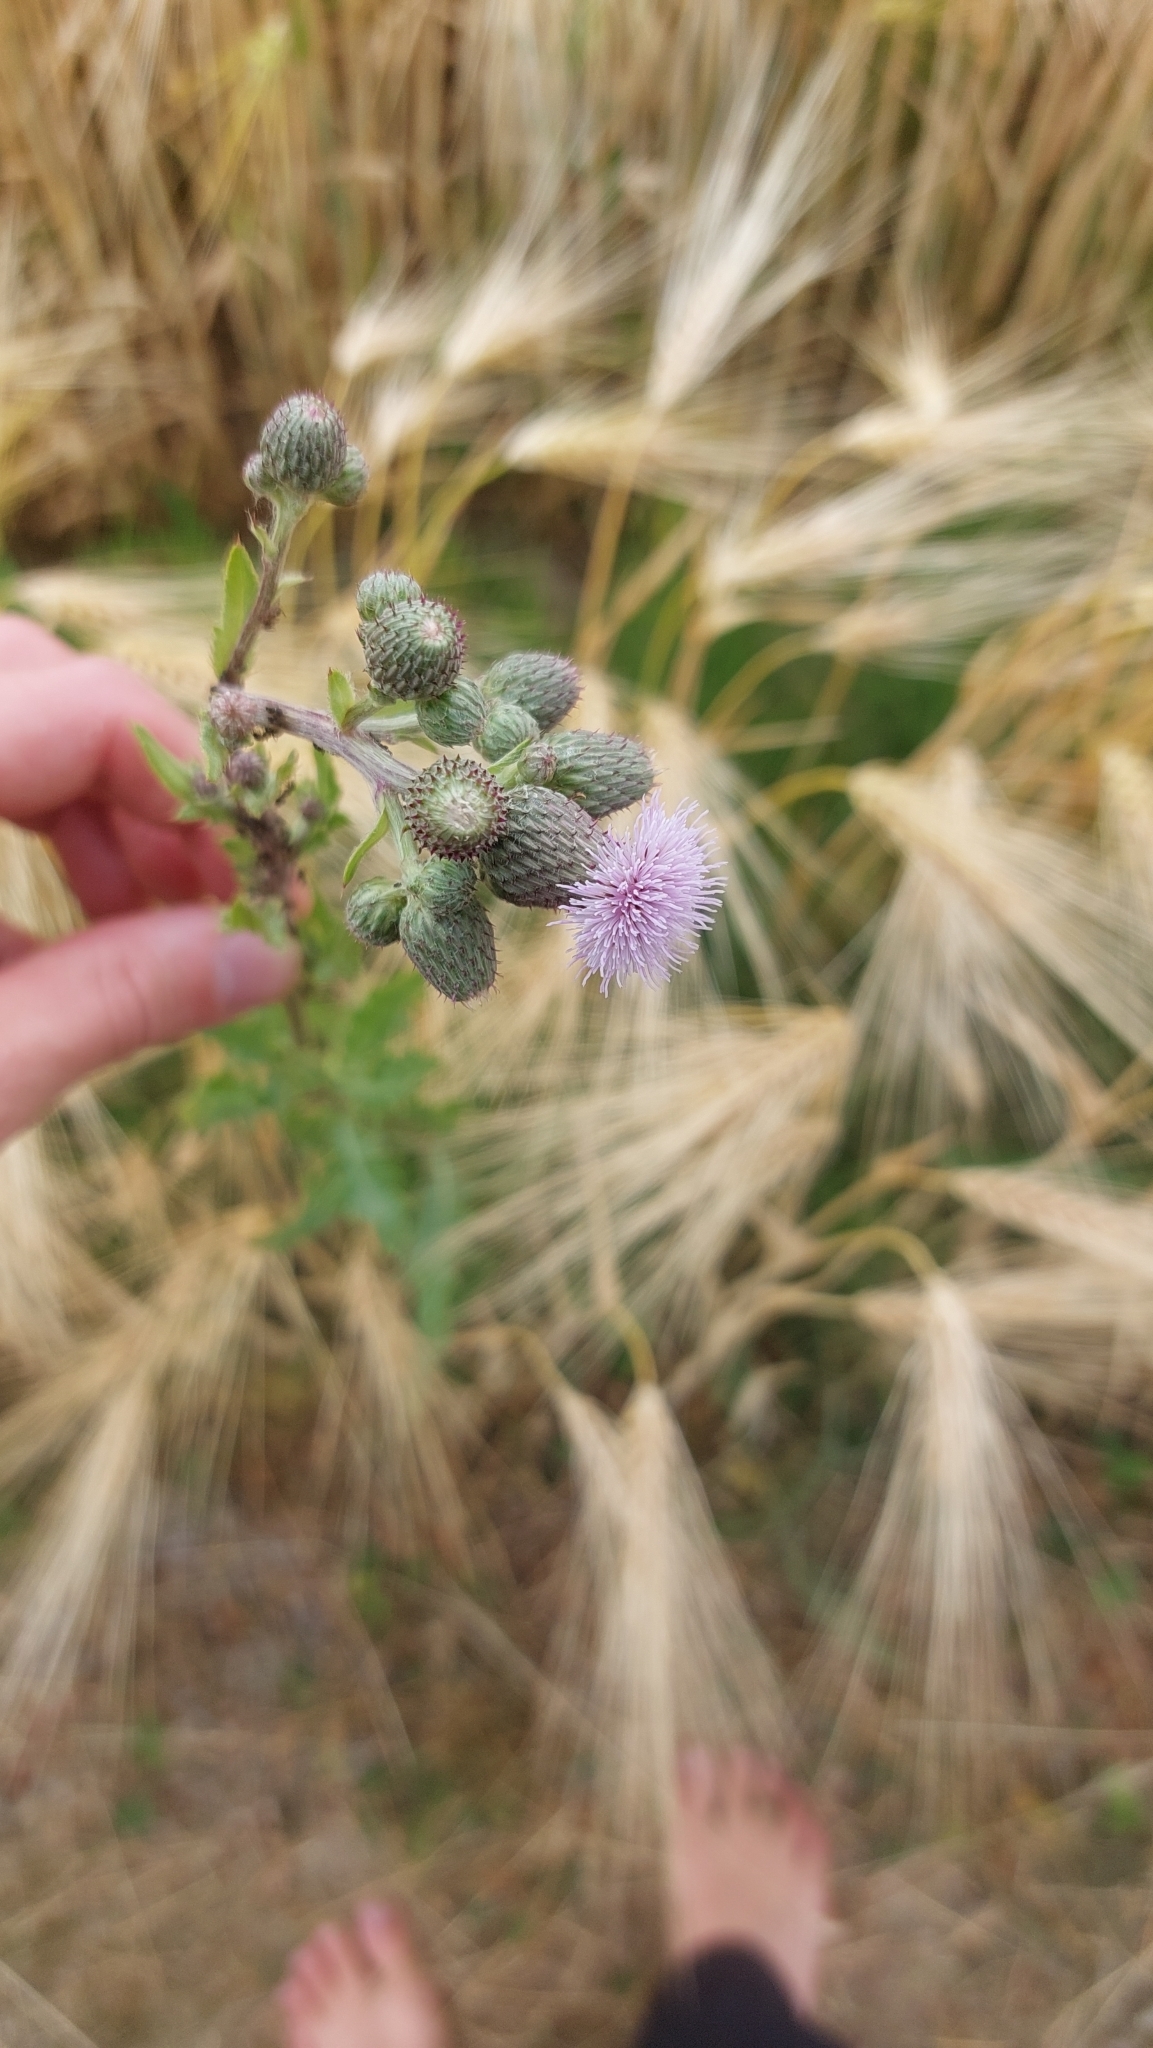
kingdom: Plantae
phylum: Tracheophyta
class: Magnoliopsida
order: Asterales
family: Asteraceae
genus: Cirsium
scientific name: Cirsium arvense
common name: Creeping thistle
